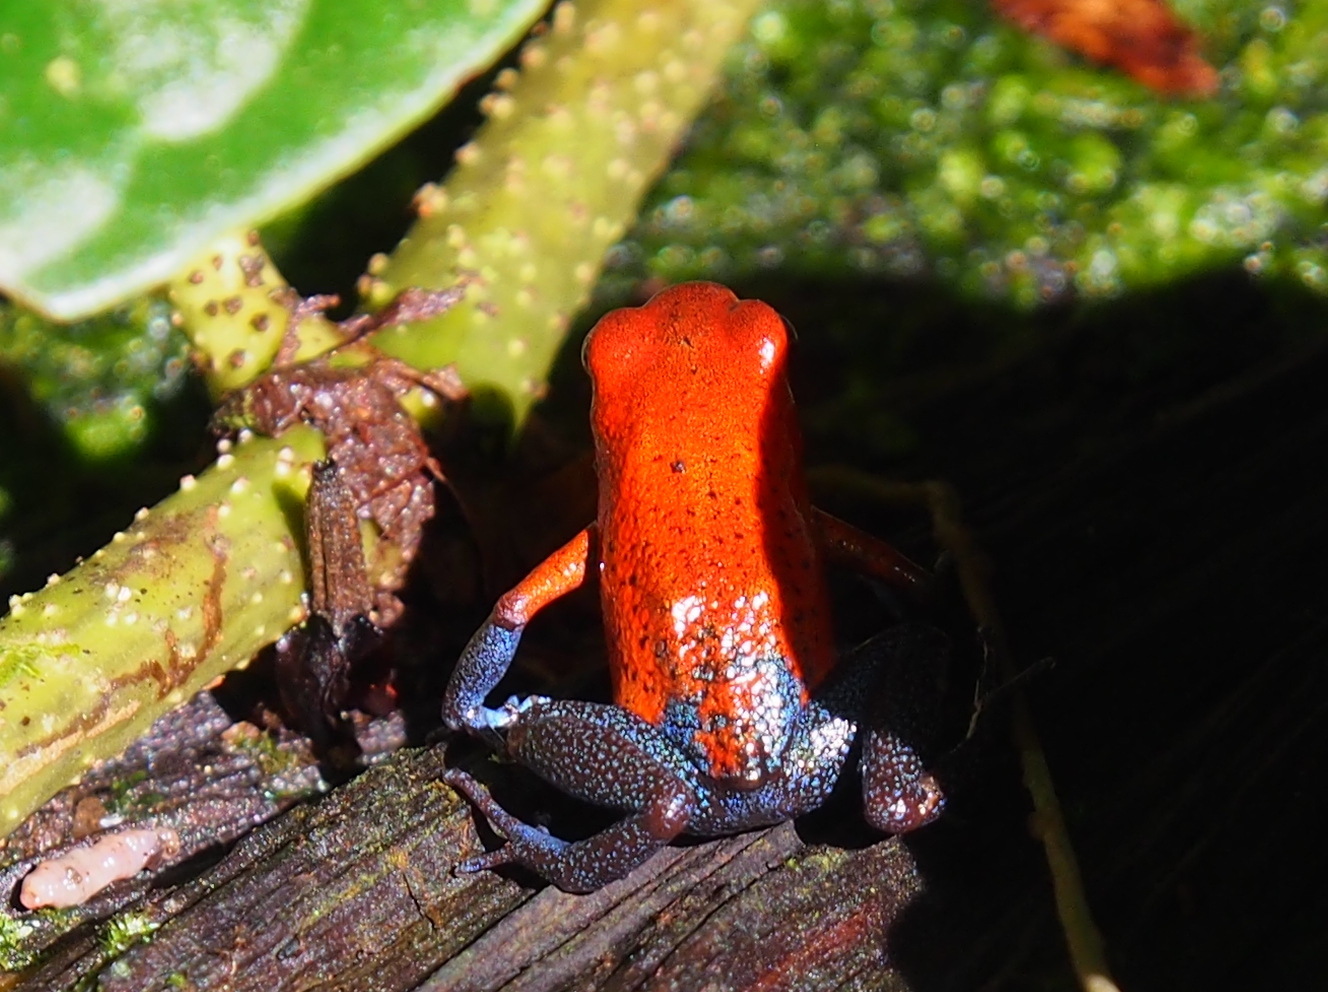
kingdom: Animalia
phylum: Chordata
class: Amphibia
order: Anura
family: Dendrobatidae
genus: Oophaga
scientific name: Oophaga pumilio
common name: Flaming poison frog
